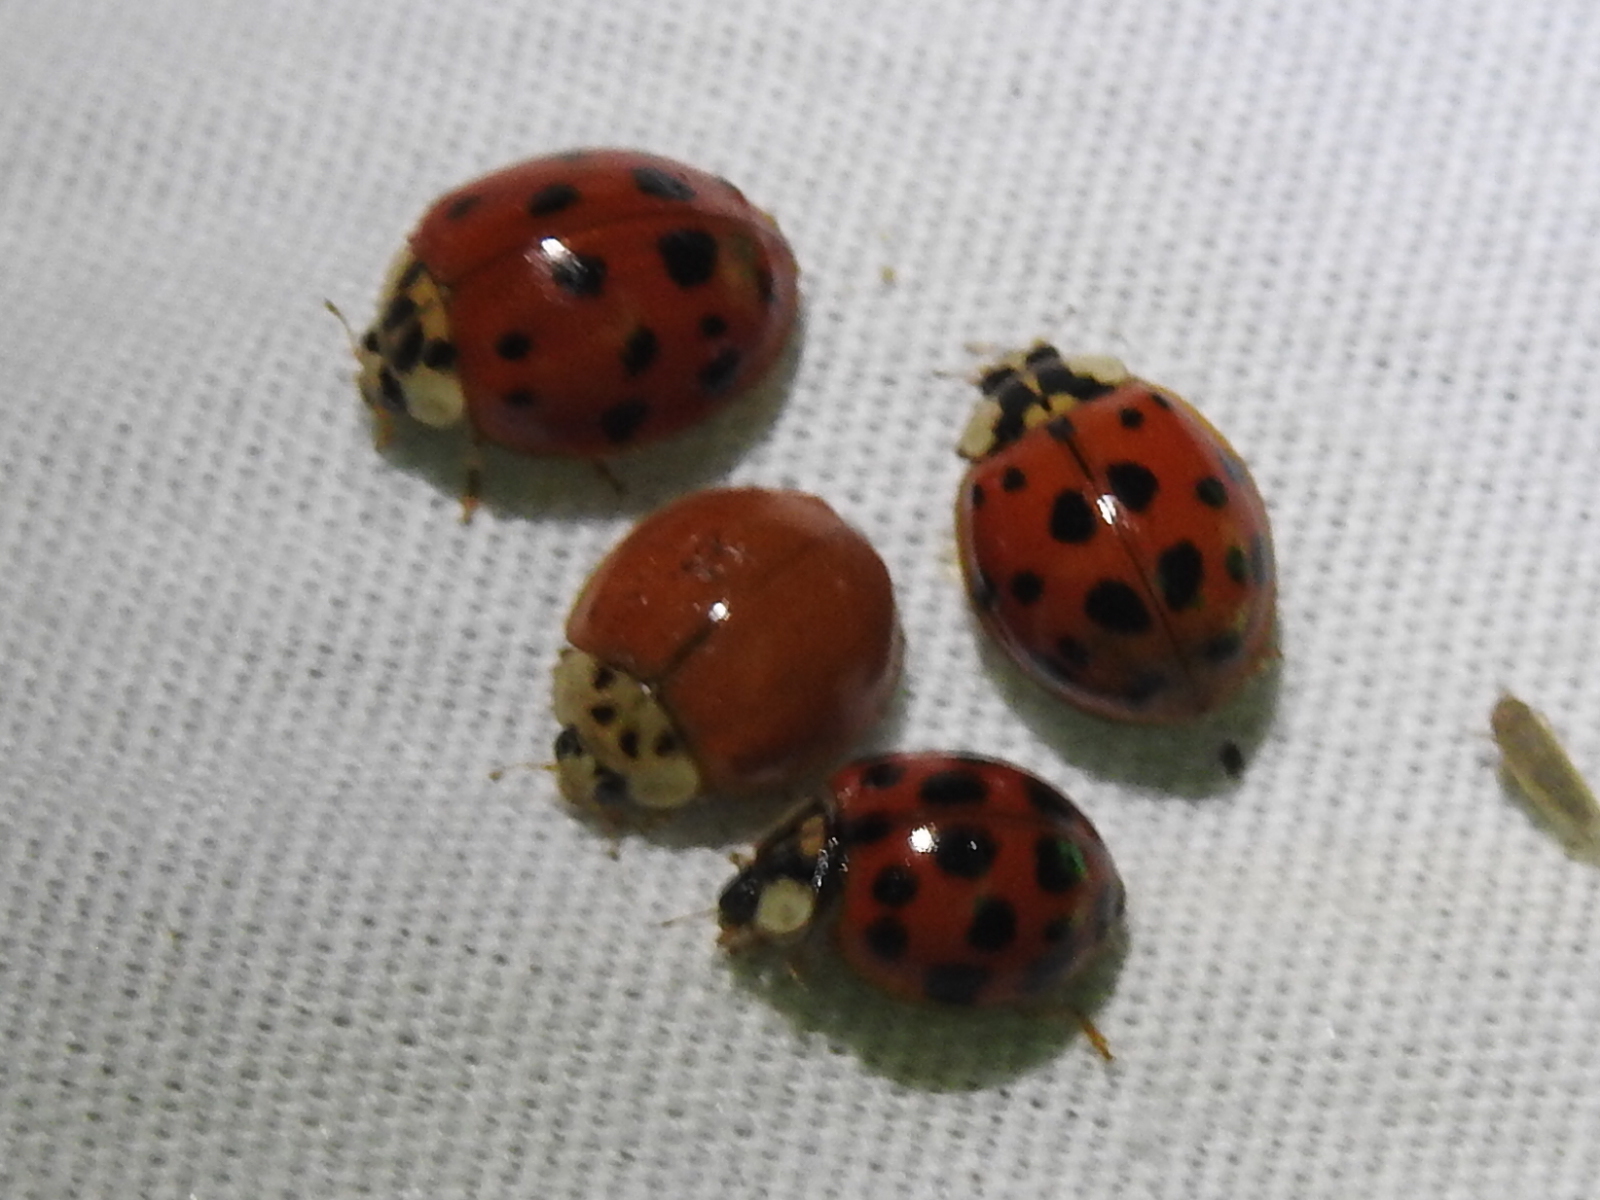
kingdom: Animalia
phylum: Arthropoda
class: Insecta
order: Coleoptera
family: Coccinellidae
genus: Harmonia
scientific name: Harmonia axyridis
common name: Harlequin ladybird
